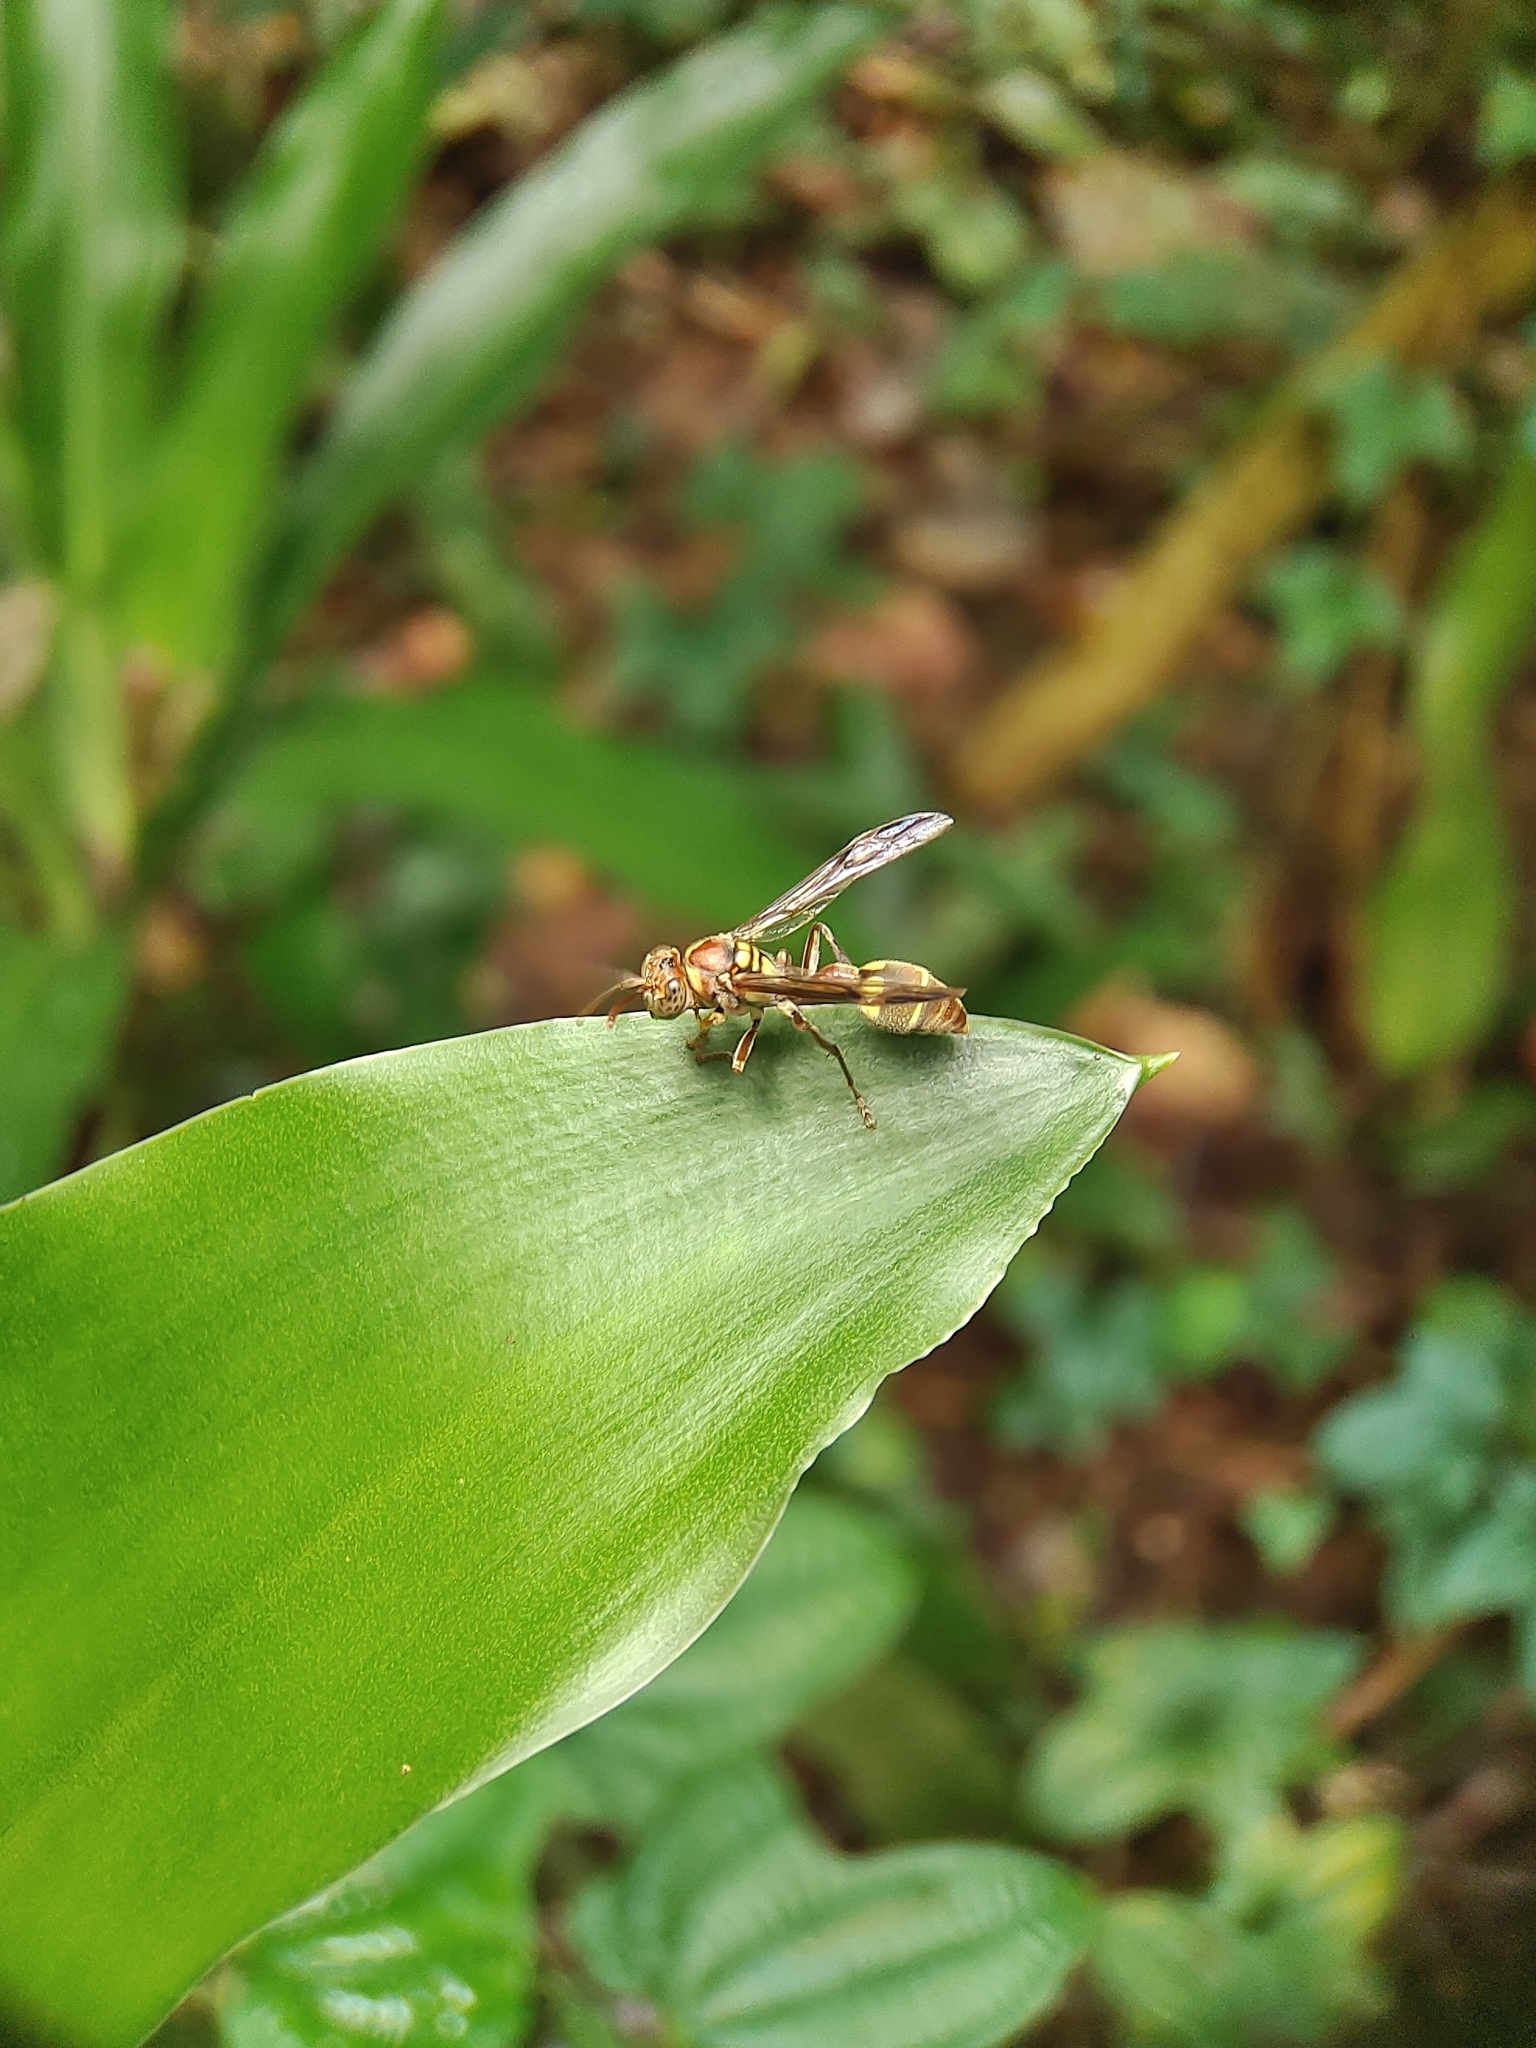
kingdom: Animalia
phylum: Arthropoda
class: Insecta
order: Hymenoptera
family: Vespidae
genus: Ropalidia
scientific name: Ropalidia stigma
